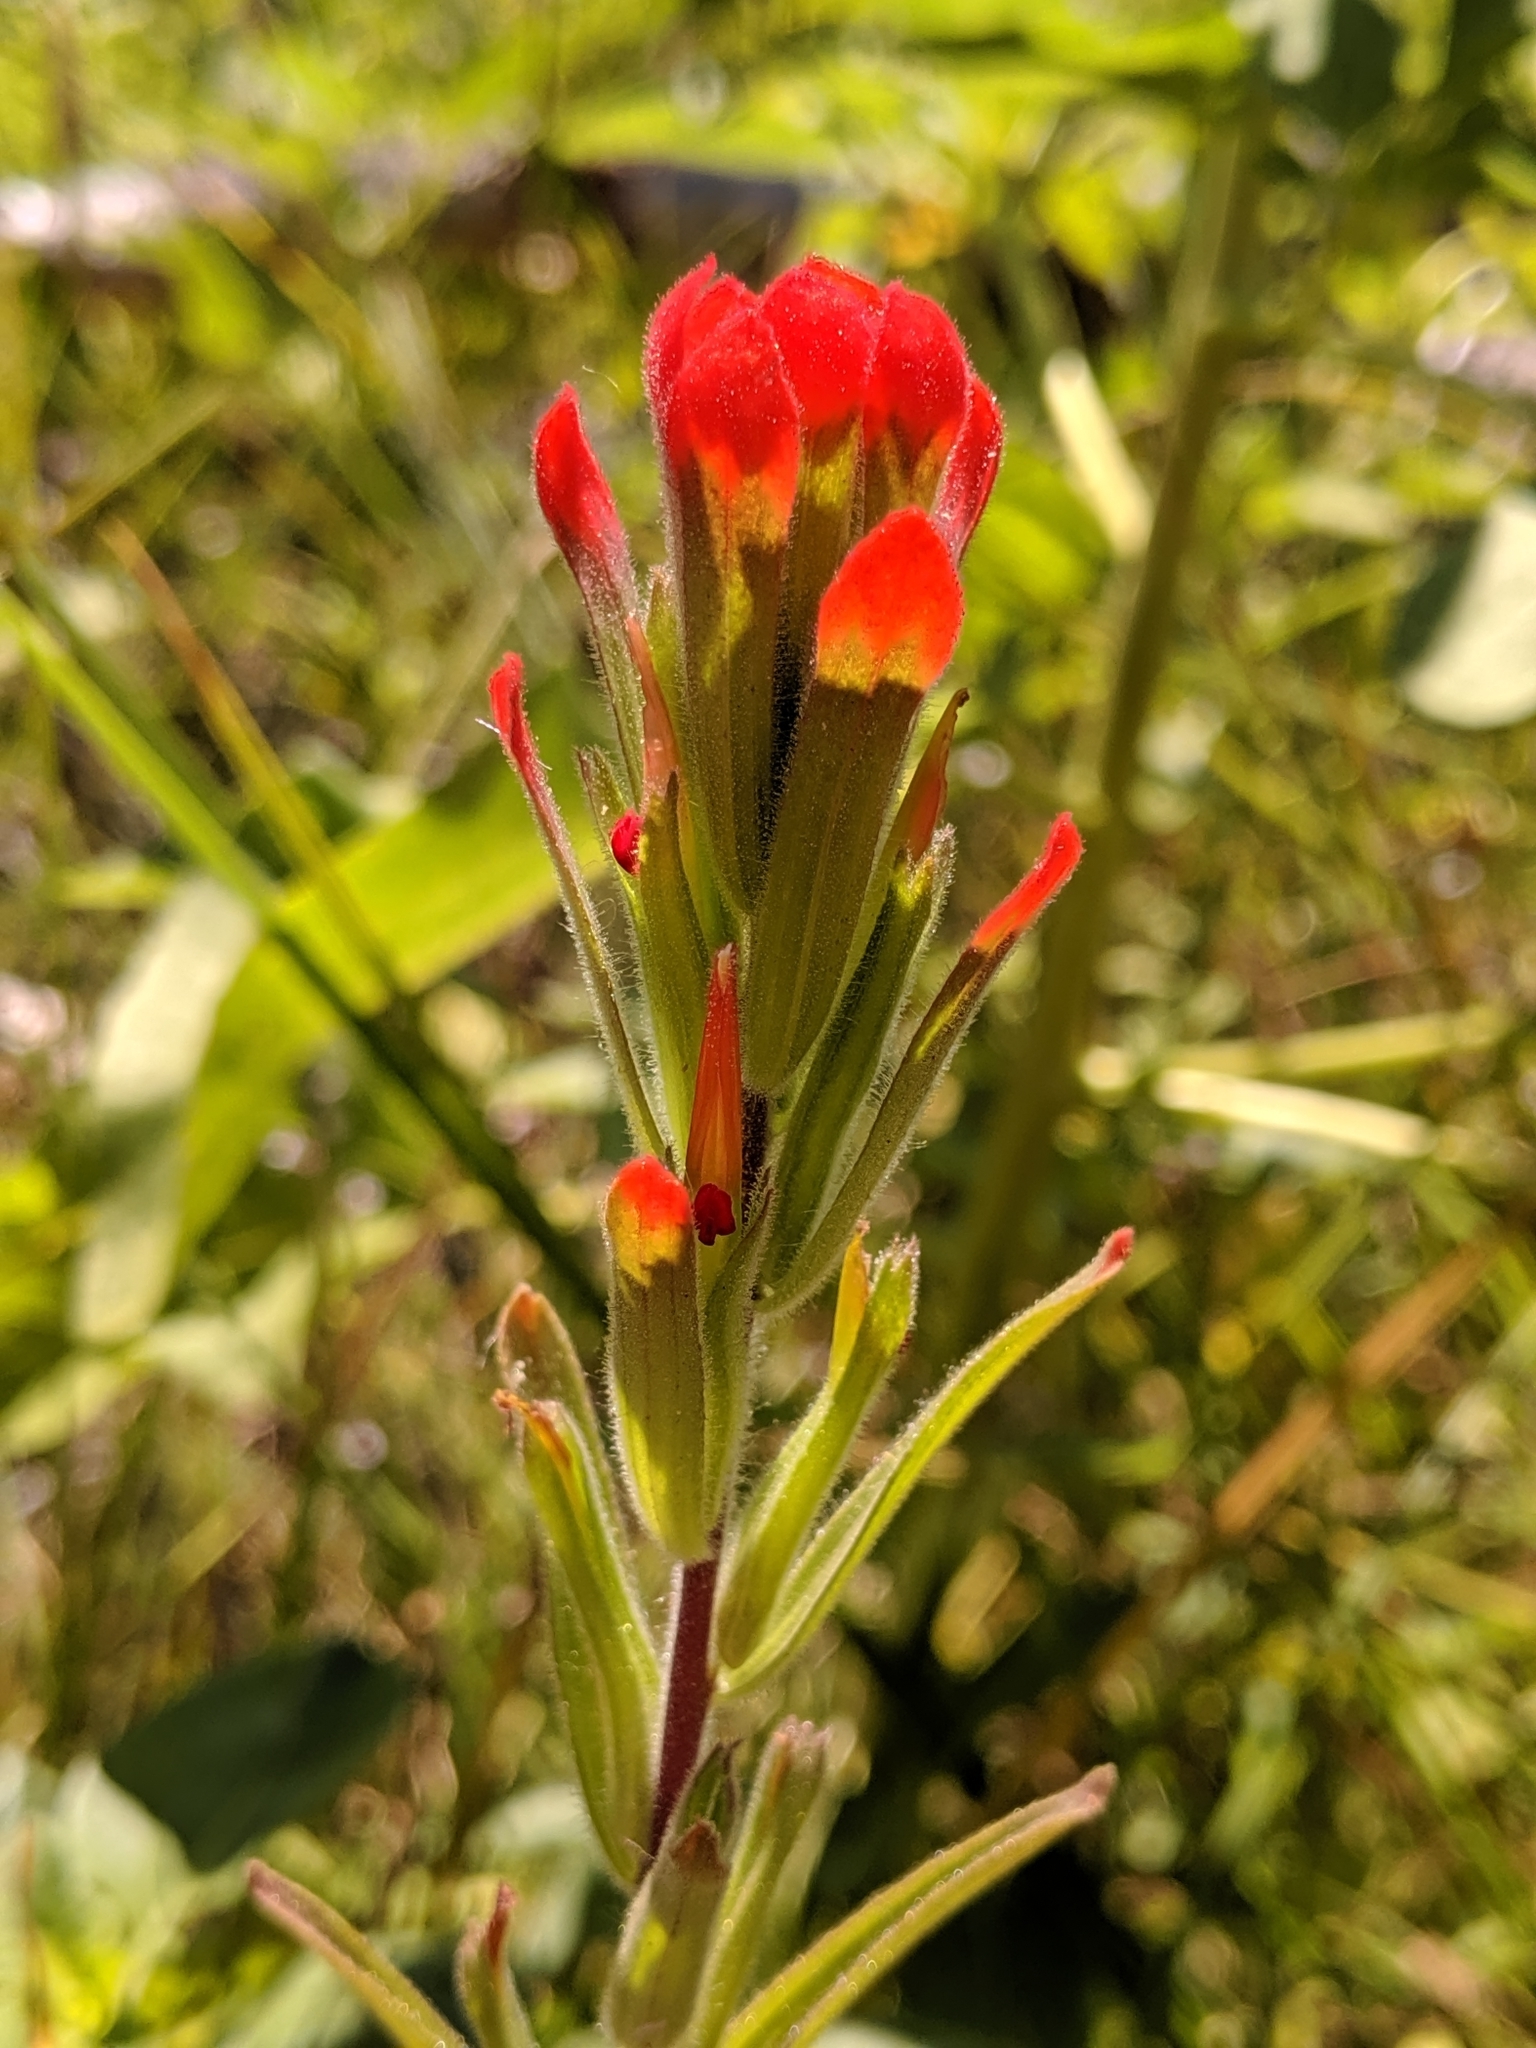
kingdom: Plantae
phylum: Tracheophyta
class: Magnoliopsida
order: Lamiales
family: Orobanchaceae
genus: Castilleja
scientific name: Castilleja minor
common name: Seep paintbrush
